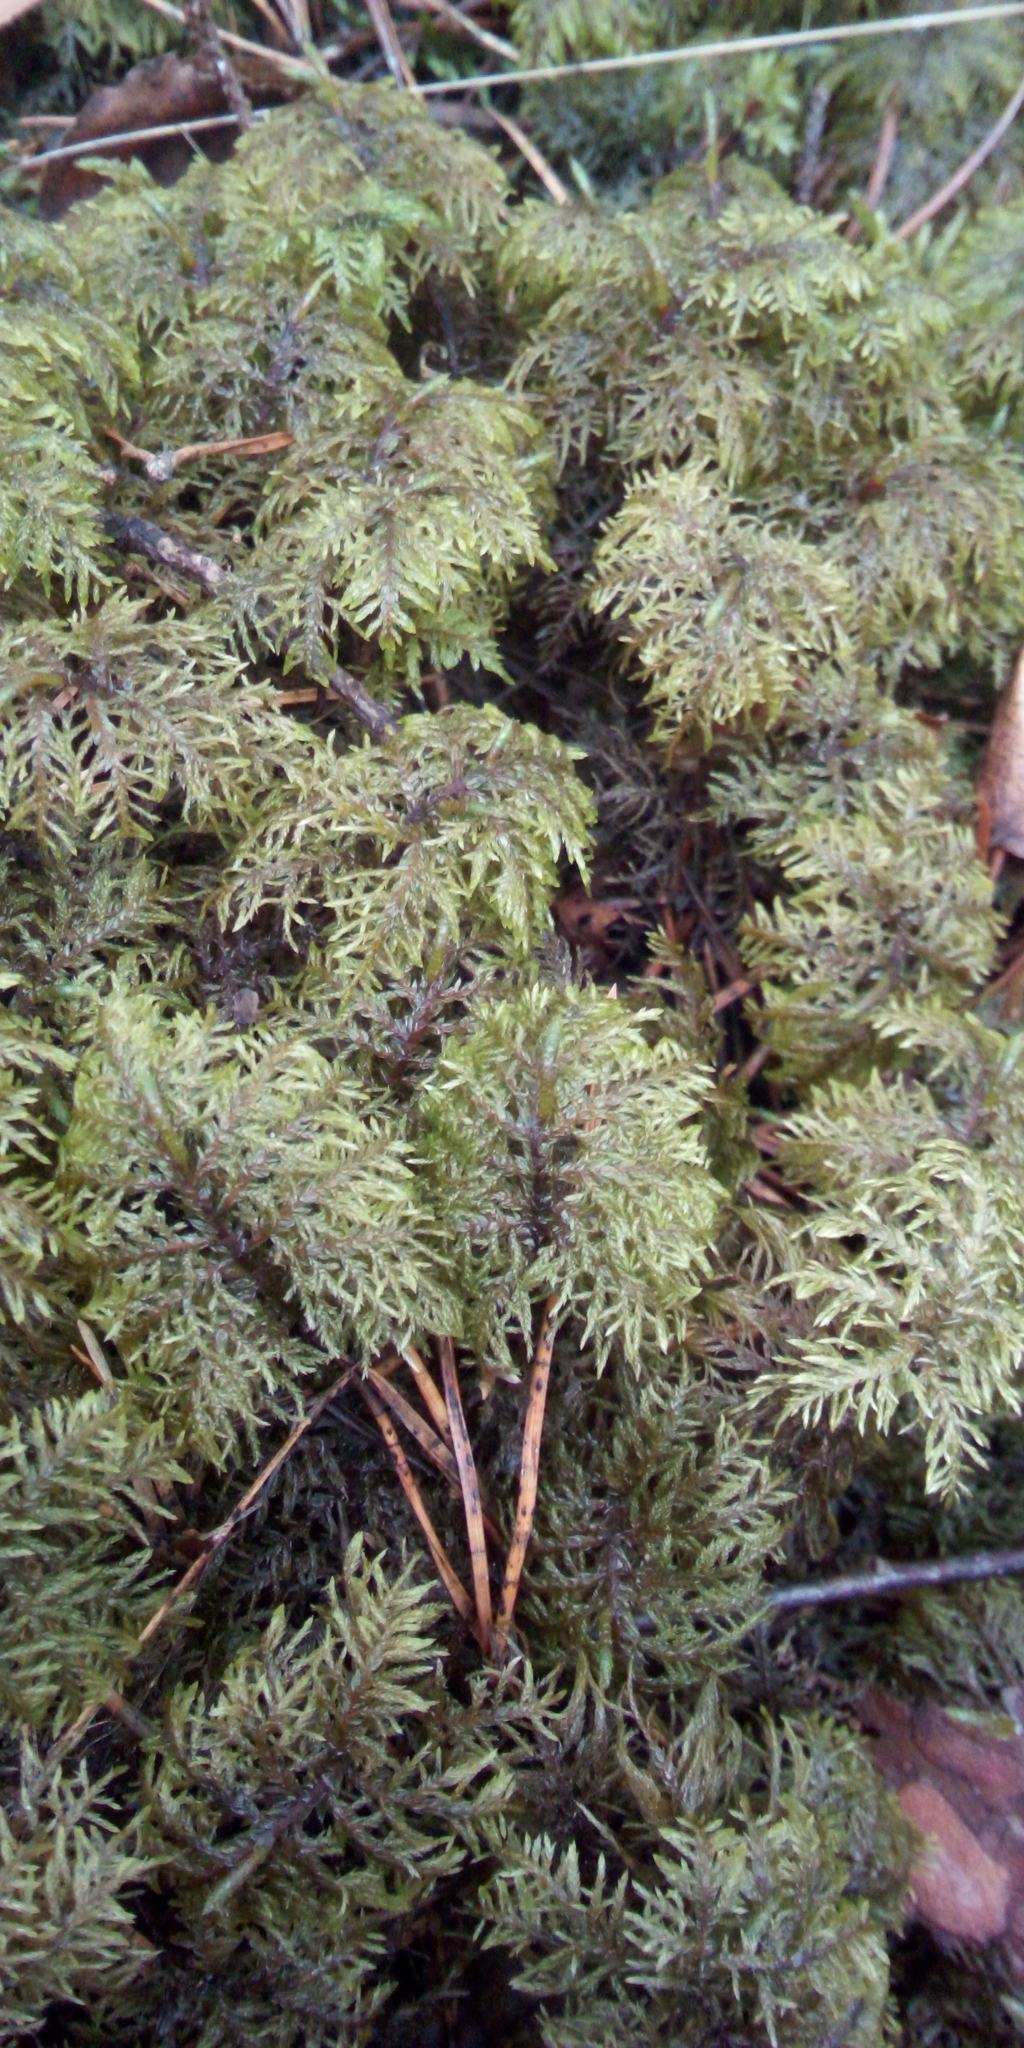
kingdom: Plantae
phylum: Bryophyta
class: Bryopsida
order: Hypnales
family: Hylocomiaceae
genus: Hylocomium
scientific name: Hylocomium splendens
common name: Stairstep moss
